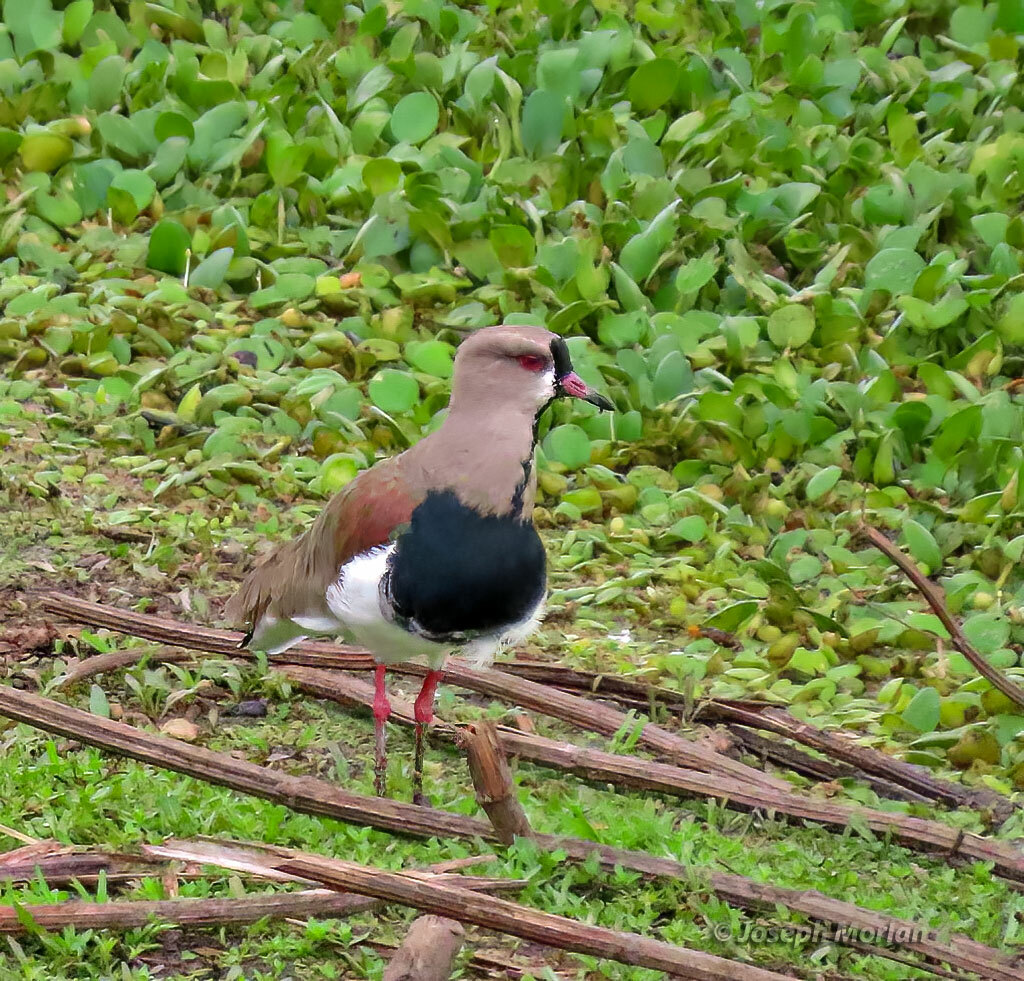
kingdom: Animalia
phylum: Chordata
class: Aves
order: Charadriiformes
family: Charadriidae
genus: Vanellus
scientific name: Vanellus chilensis
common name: Southern lapwing
